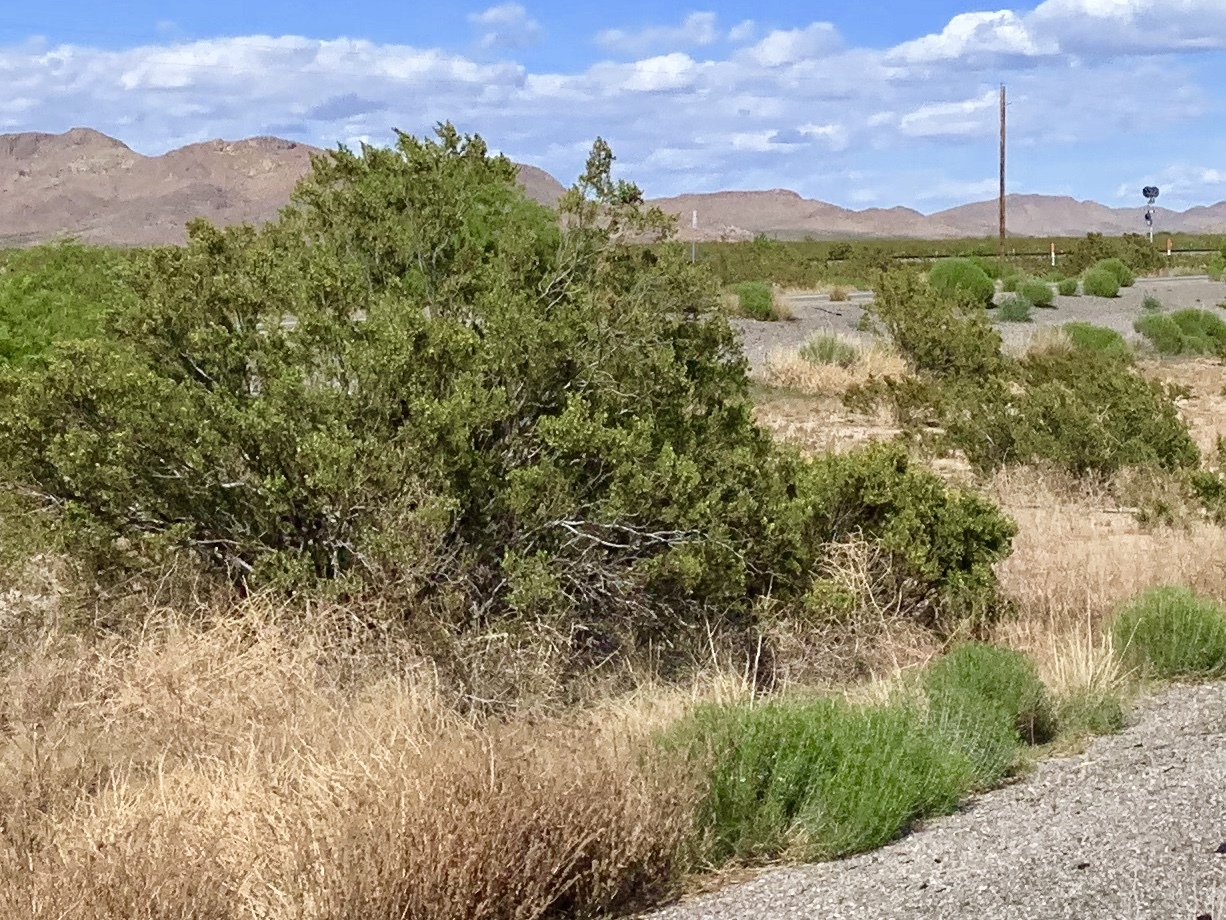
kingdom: Plantae
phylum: Tracheophyta
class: Magnoliopsida
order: Zygophyllales
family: Zygophyllaceae
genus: Larrea
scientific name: Larrea tridentata
